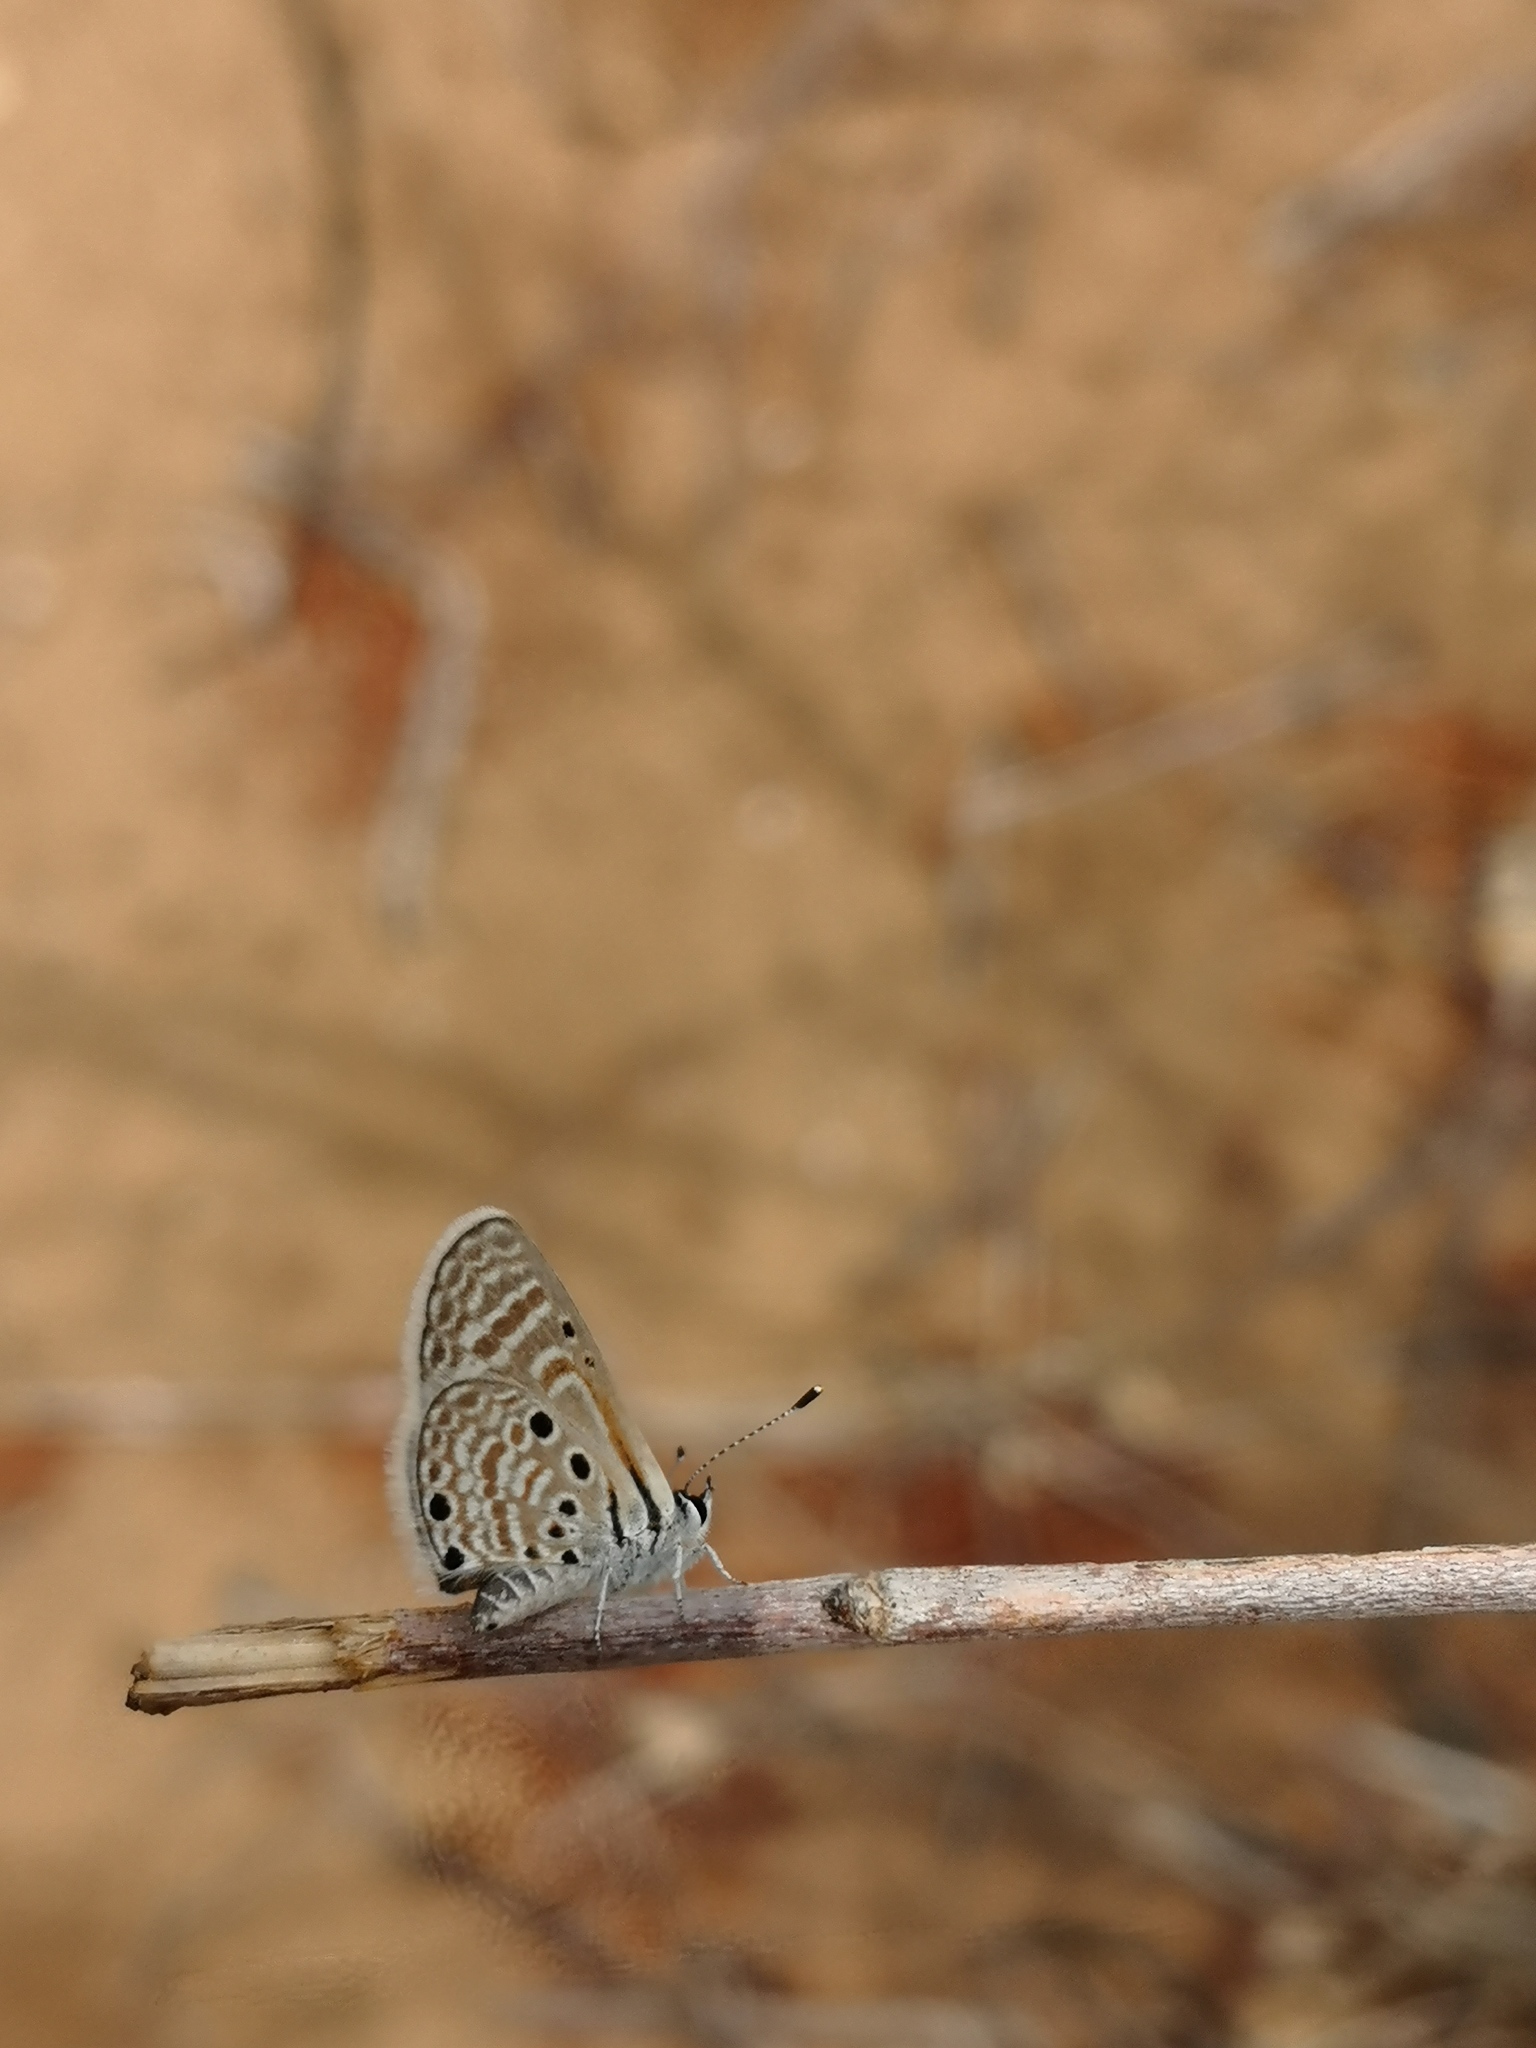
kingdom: Animalia
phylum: Arthropoda
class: Insecta
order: Lepidoptera
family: Lycaenidae
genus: Azanus
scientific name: Azanus ubaldus
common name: Desert babul blue
